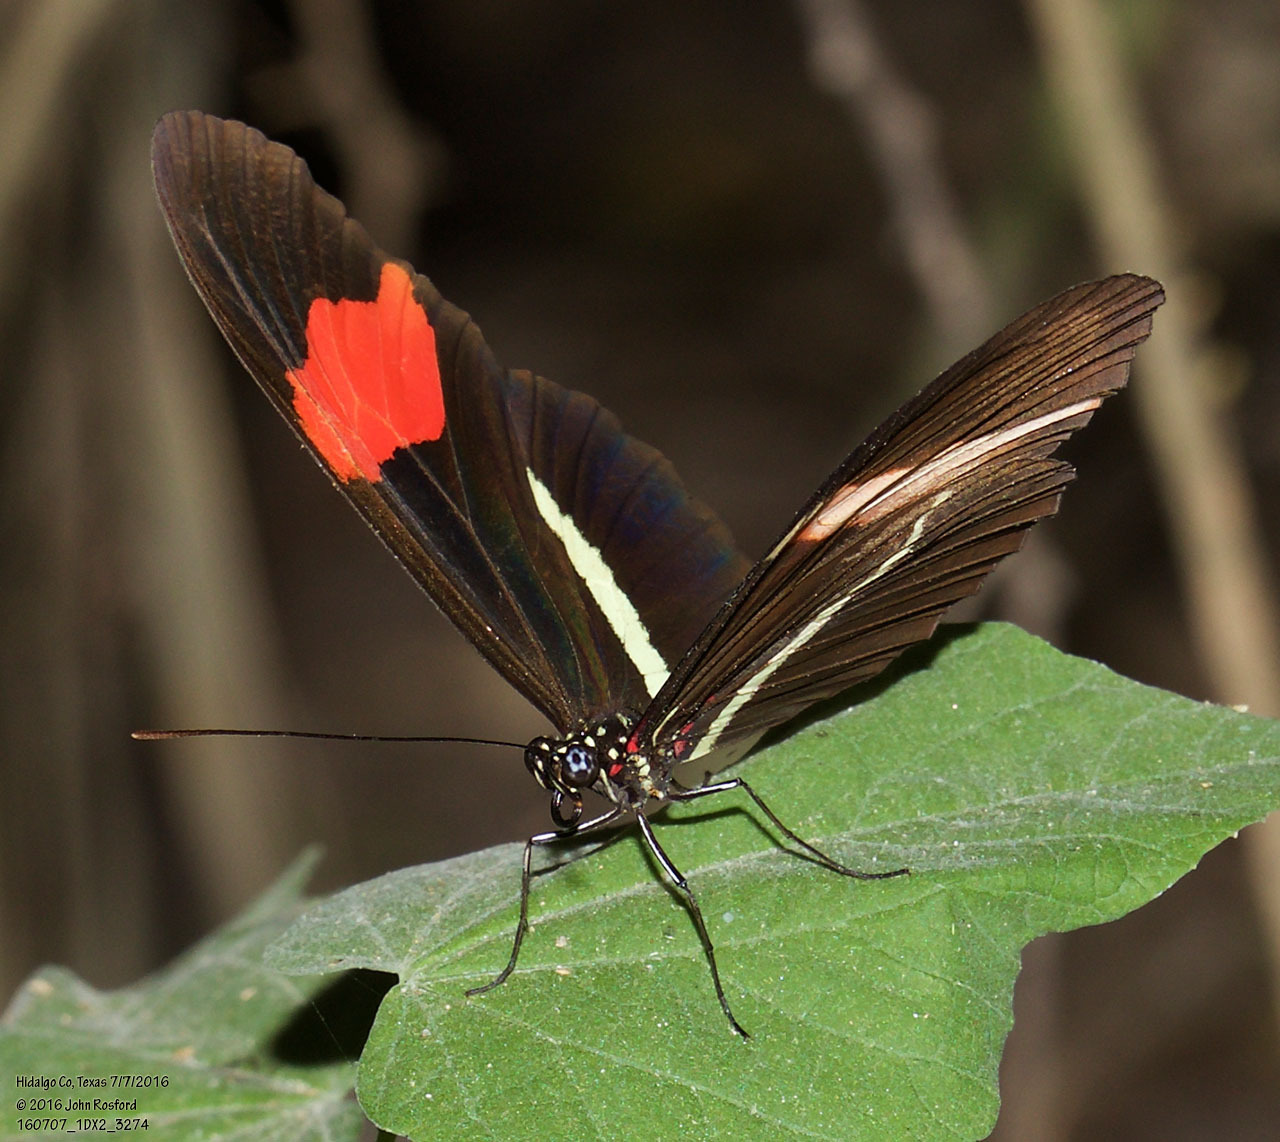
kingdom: Animalia
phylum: Arthropoda
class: Insecta
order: Lepidoptera
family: Nymphalidae
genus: Tirumala
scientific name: Tirumala petiverana
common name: Blue monarch
